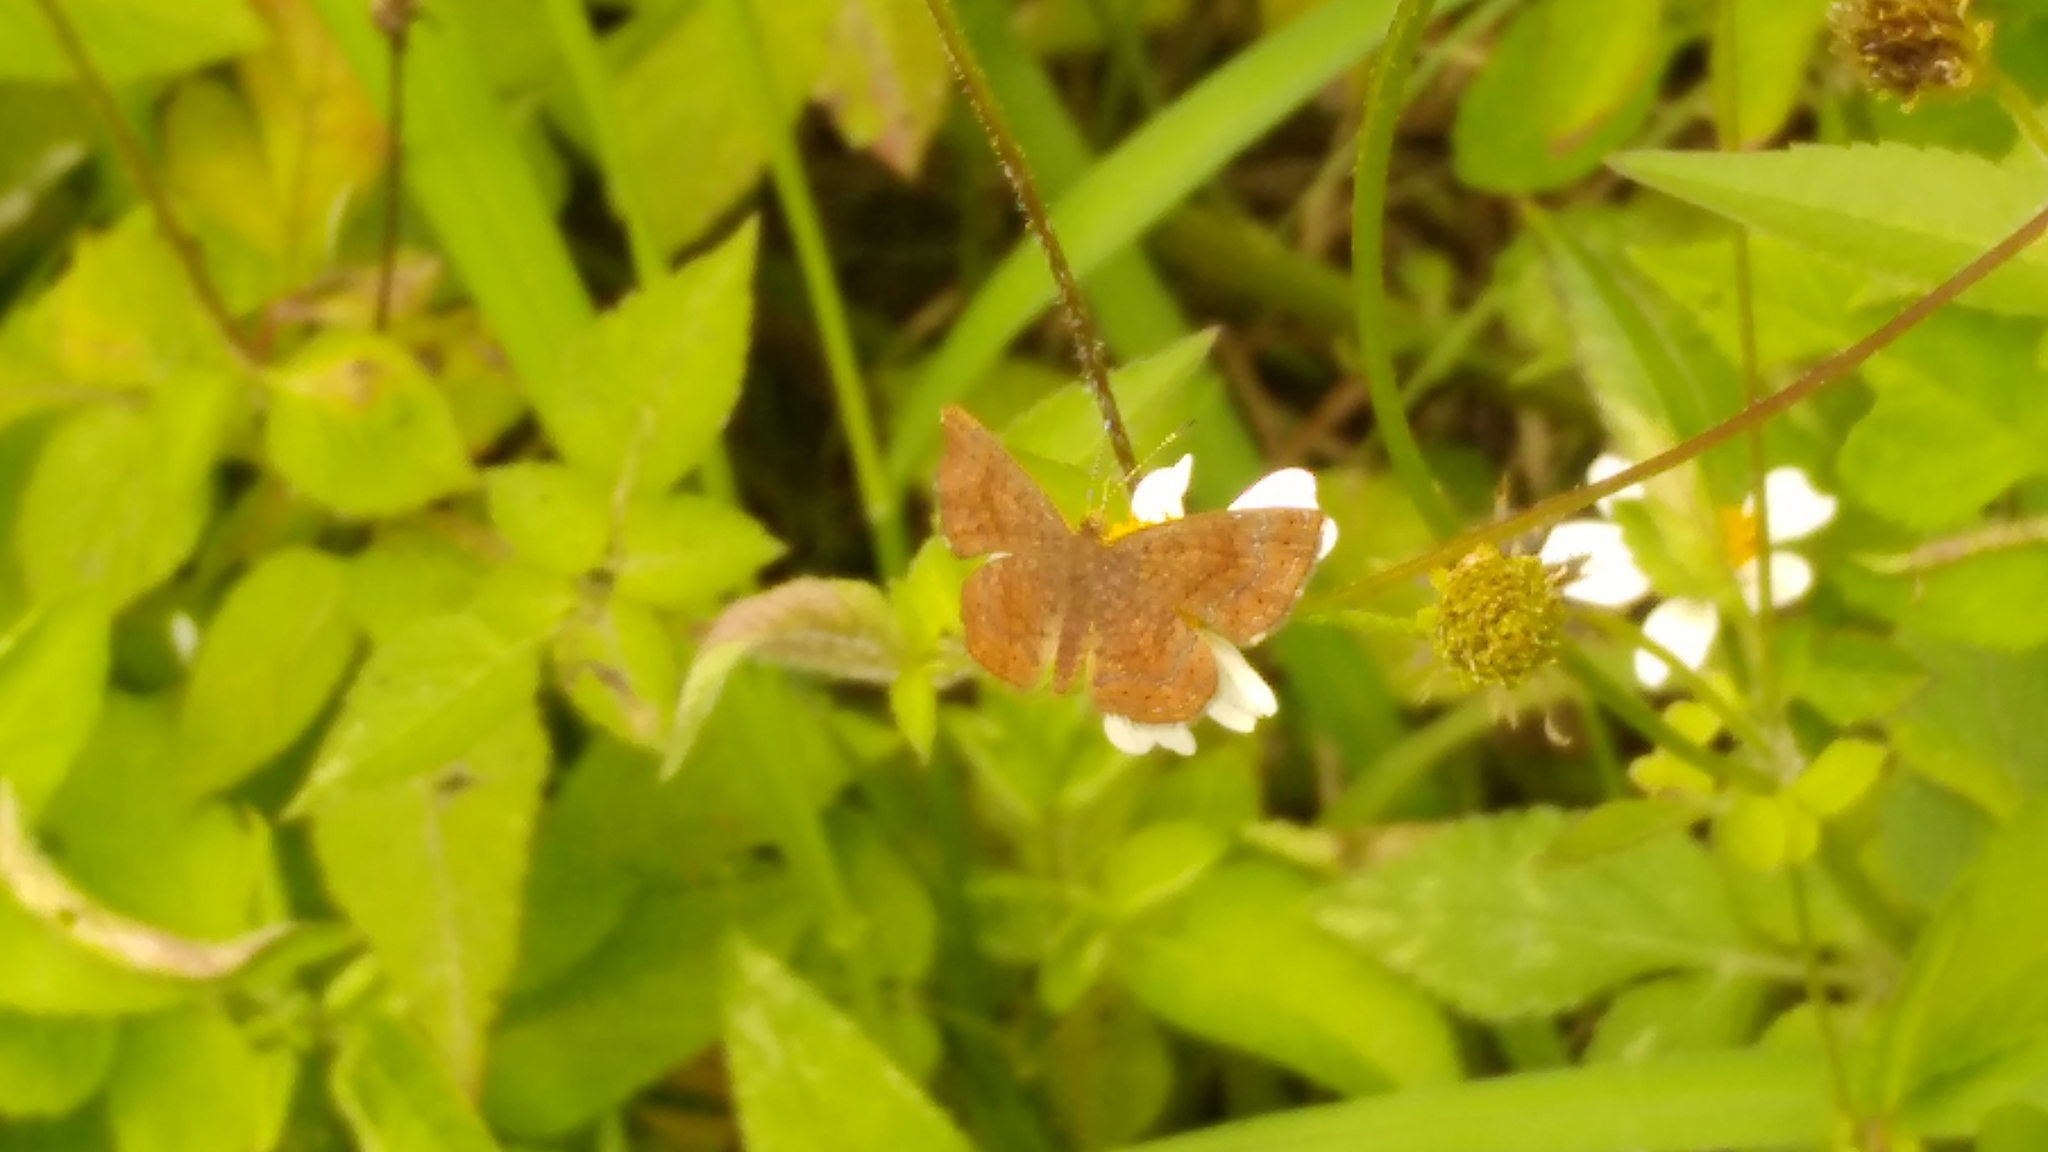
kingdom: Animalia
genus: Calephelis
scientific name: Calephelis perditalis
